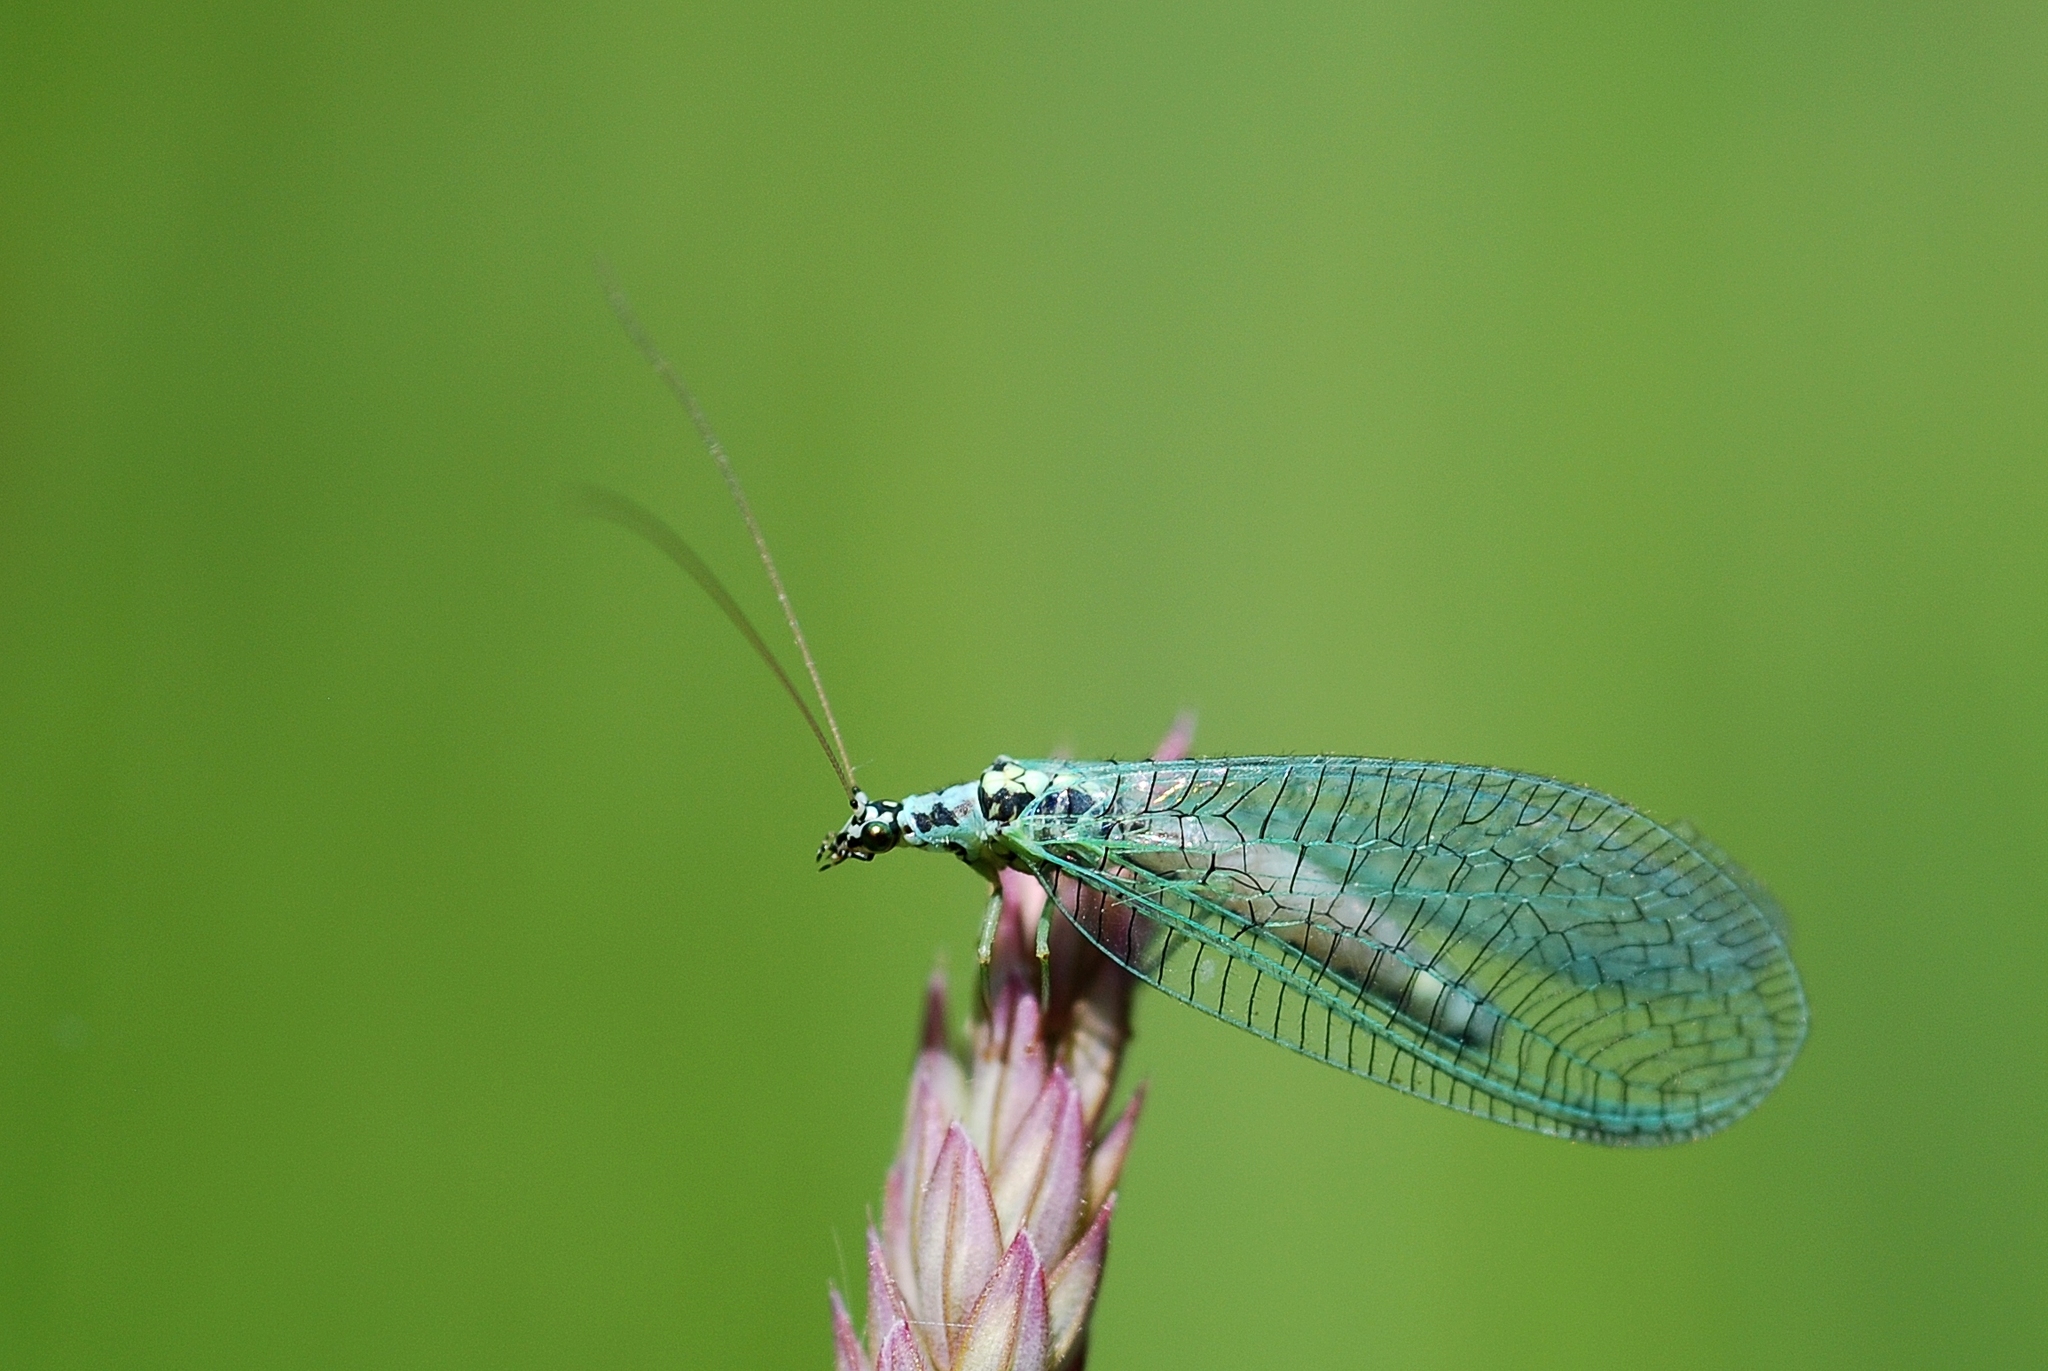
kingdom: Animalia
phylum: Arthropoda
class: Insecta
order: Neuroptera
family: Chrysopidae
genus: Chrysopa
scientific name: Chrysopa perla
